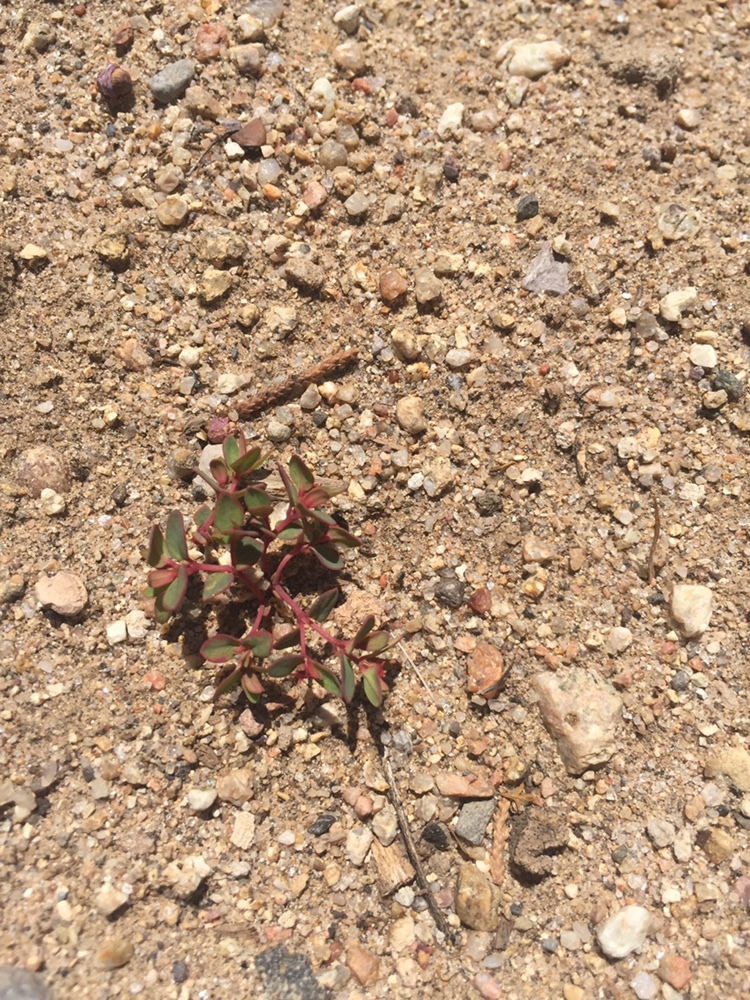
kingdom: Plantae
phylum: Tracheophyta
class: Magnoliopsida
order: Malpighiales
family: Euphorbiaceae
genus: Euphorbia
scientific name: Euphorbia fendleri
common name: Fendler's euphorbia
